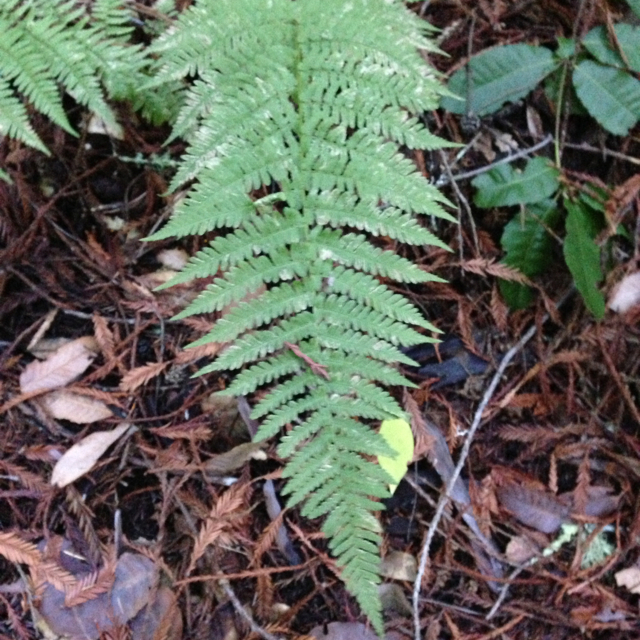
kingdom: Plantae
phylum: Tracheophyta
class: Polypodiopsida
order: Polypodiales
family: Dryopteridaceae
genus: Dryopteris
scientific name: Dryopteris arguta
